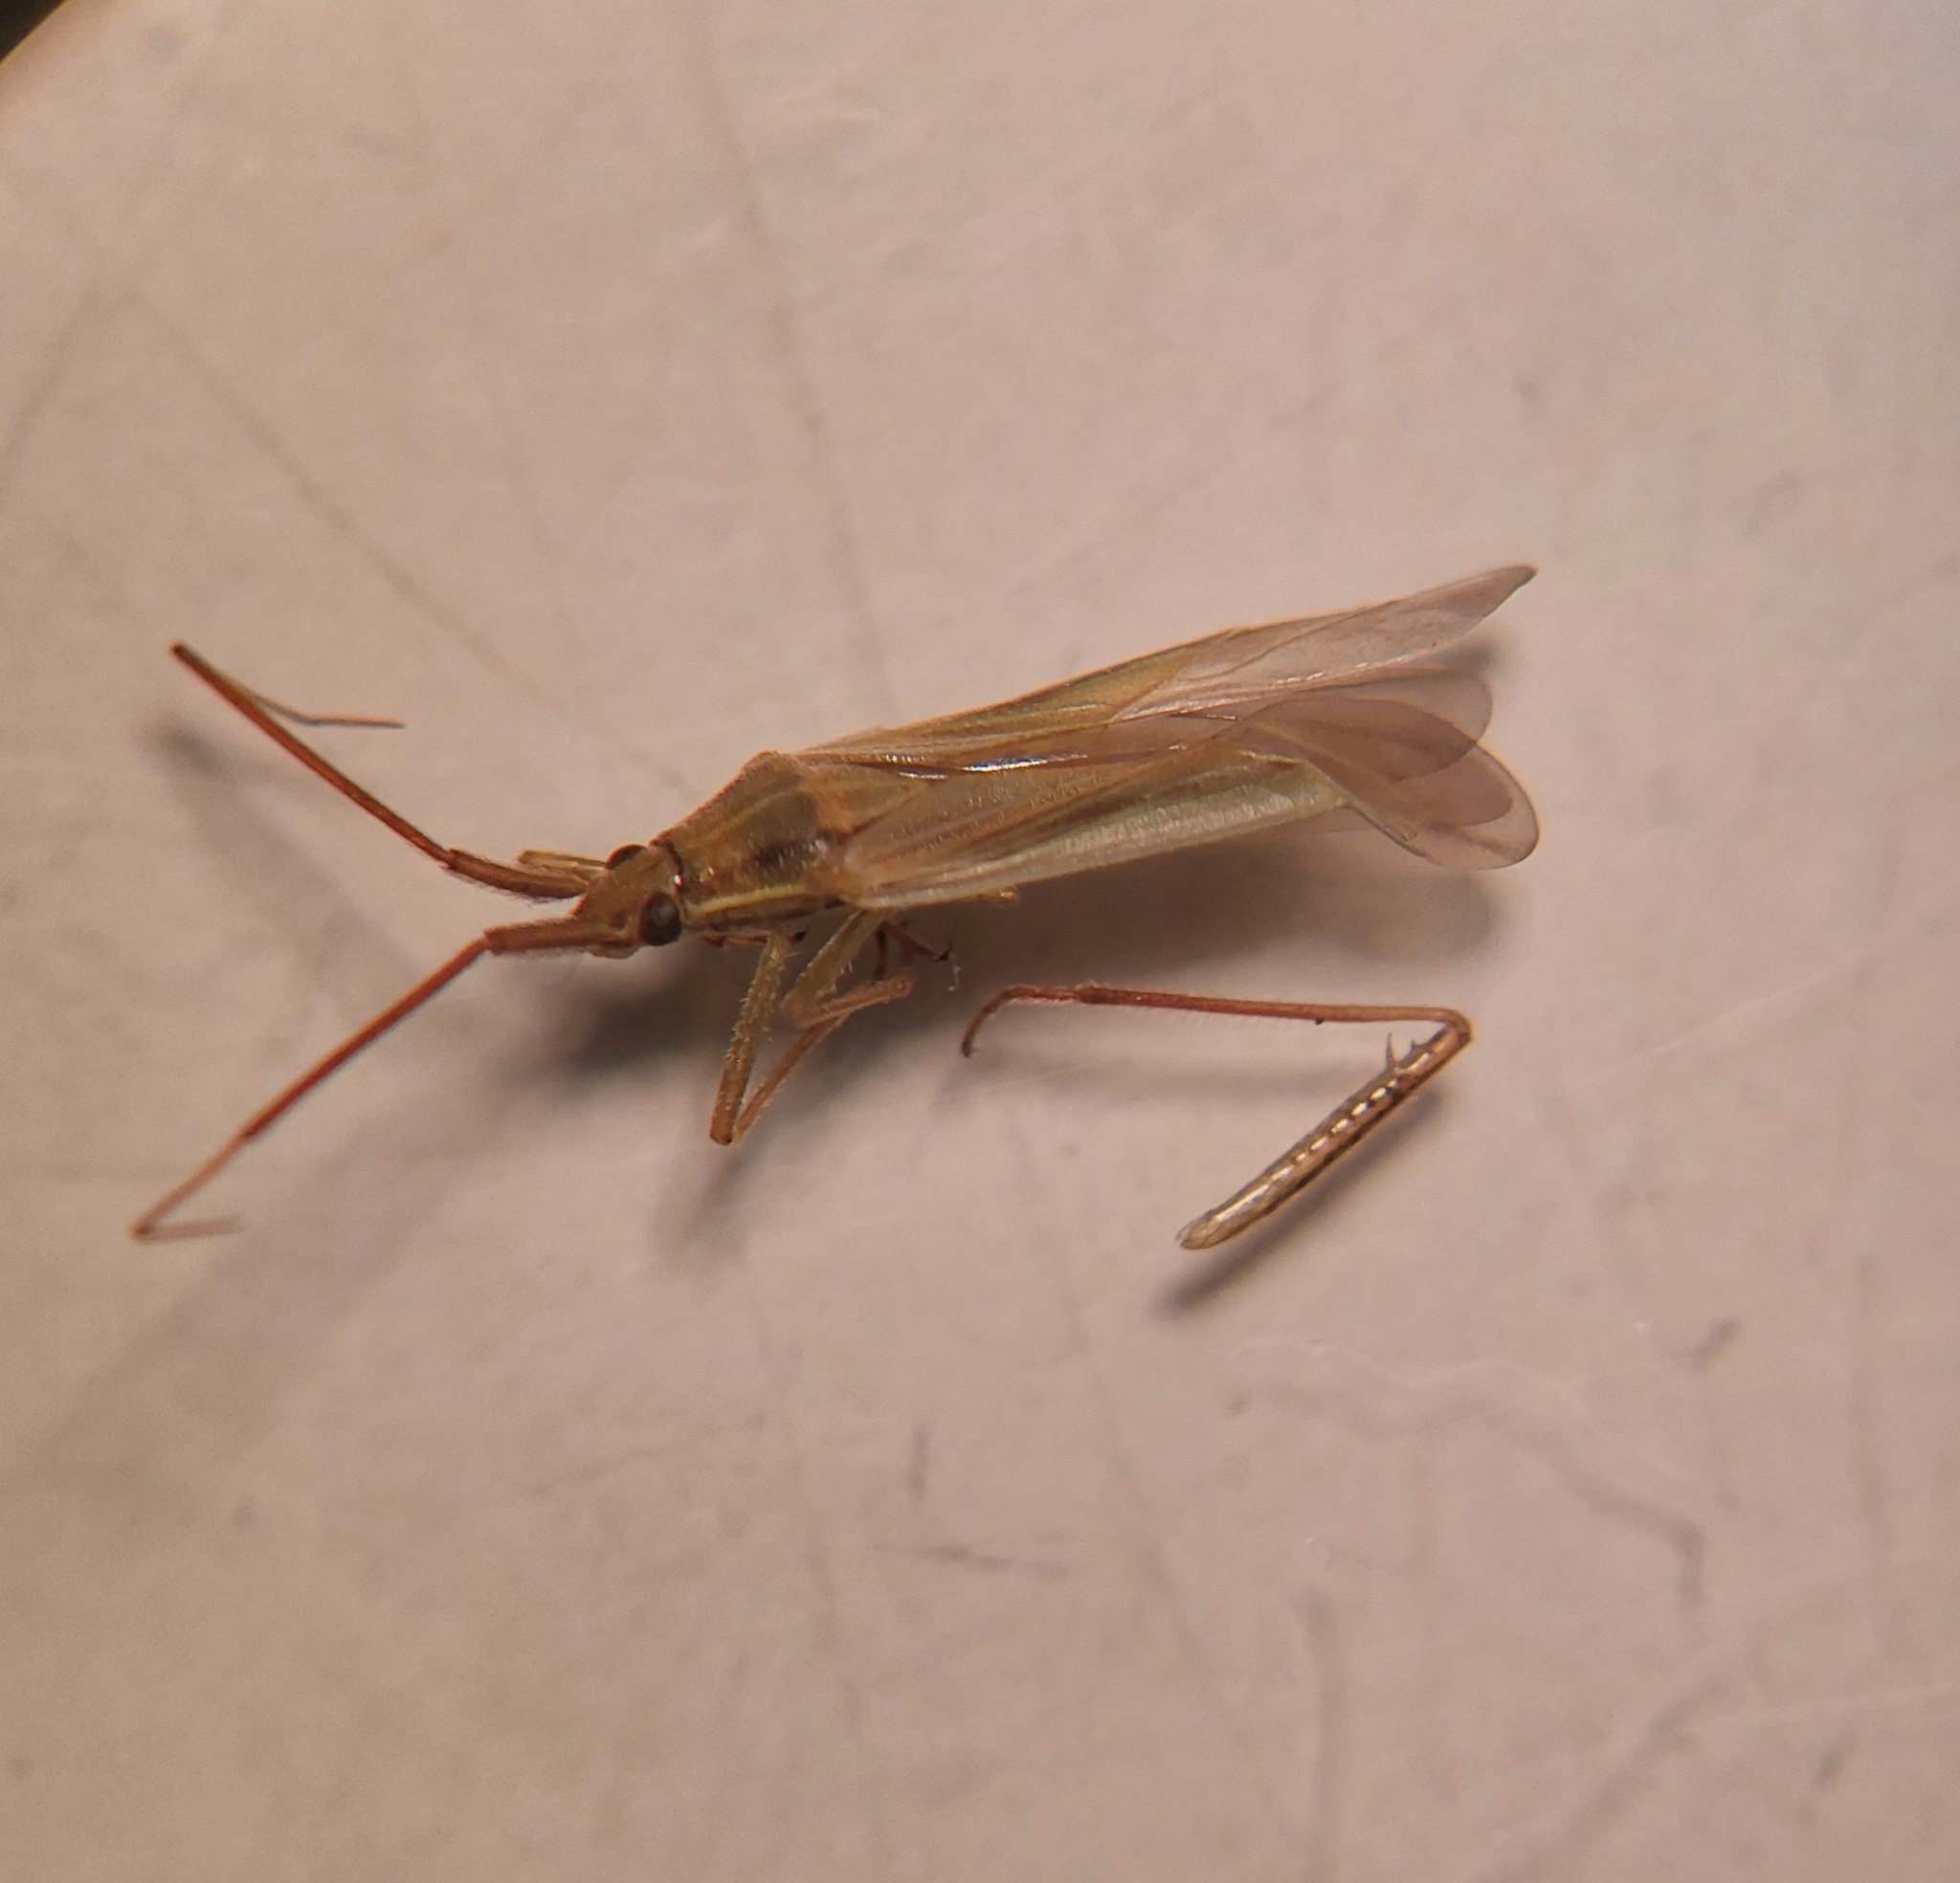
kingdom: Animalia
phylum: Arthropoda
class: Insecta
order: Hemiptera
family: Miridae
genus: Stenodema
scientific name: Stenodema calcarata
